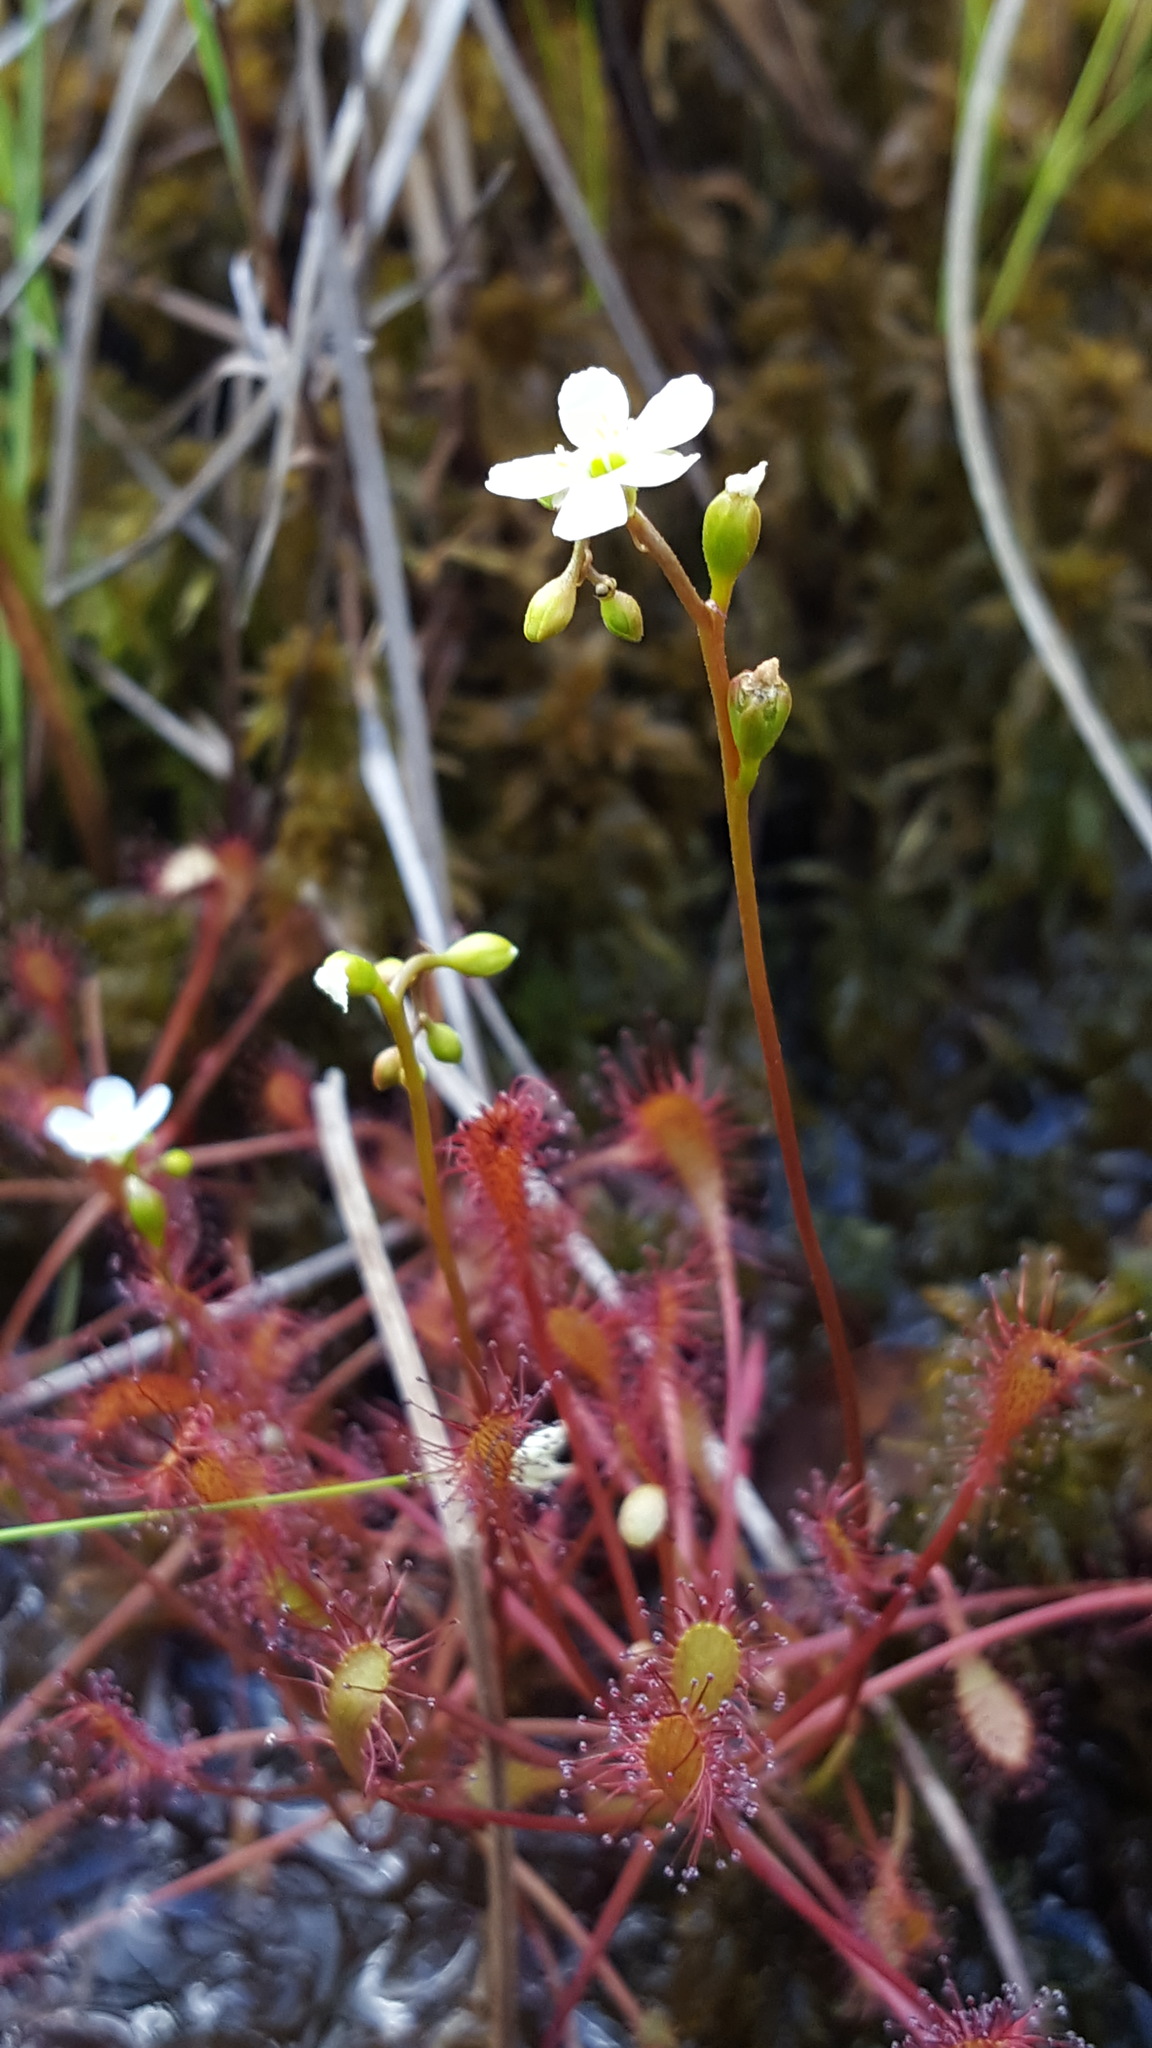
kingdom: Plantae
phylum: Tracheophyta
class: Magnoliopsida
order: Caryophyllales
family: Droseraceae
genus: Drosera
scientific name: Drosera intermedia
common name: Oblong-leaved sundew
